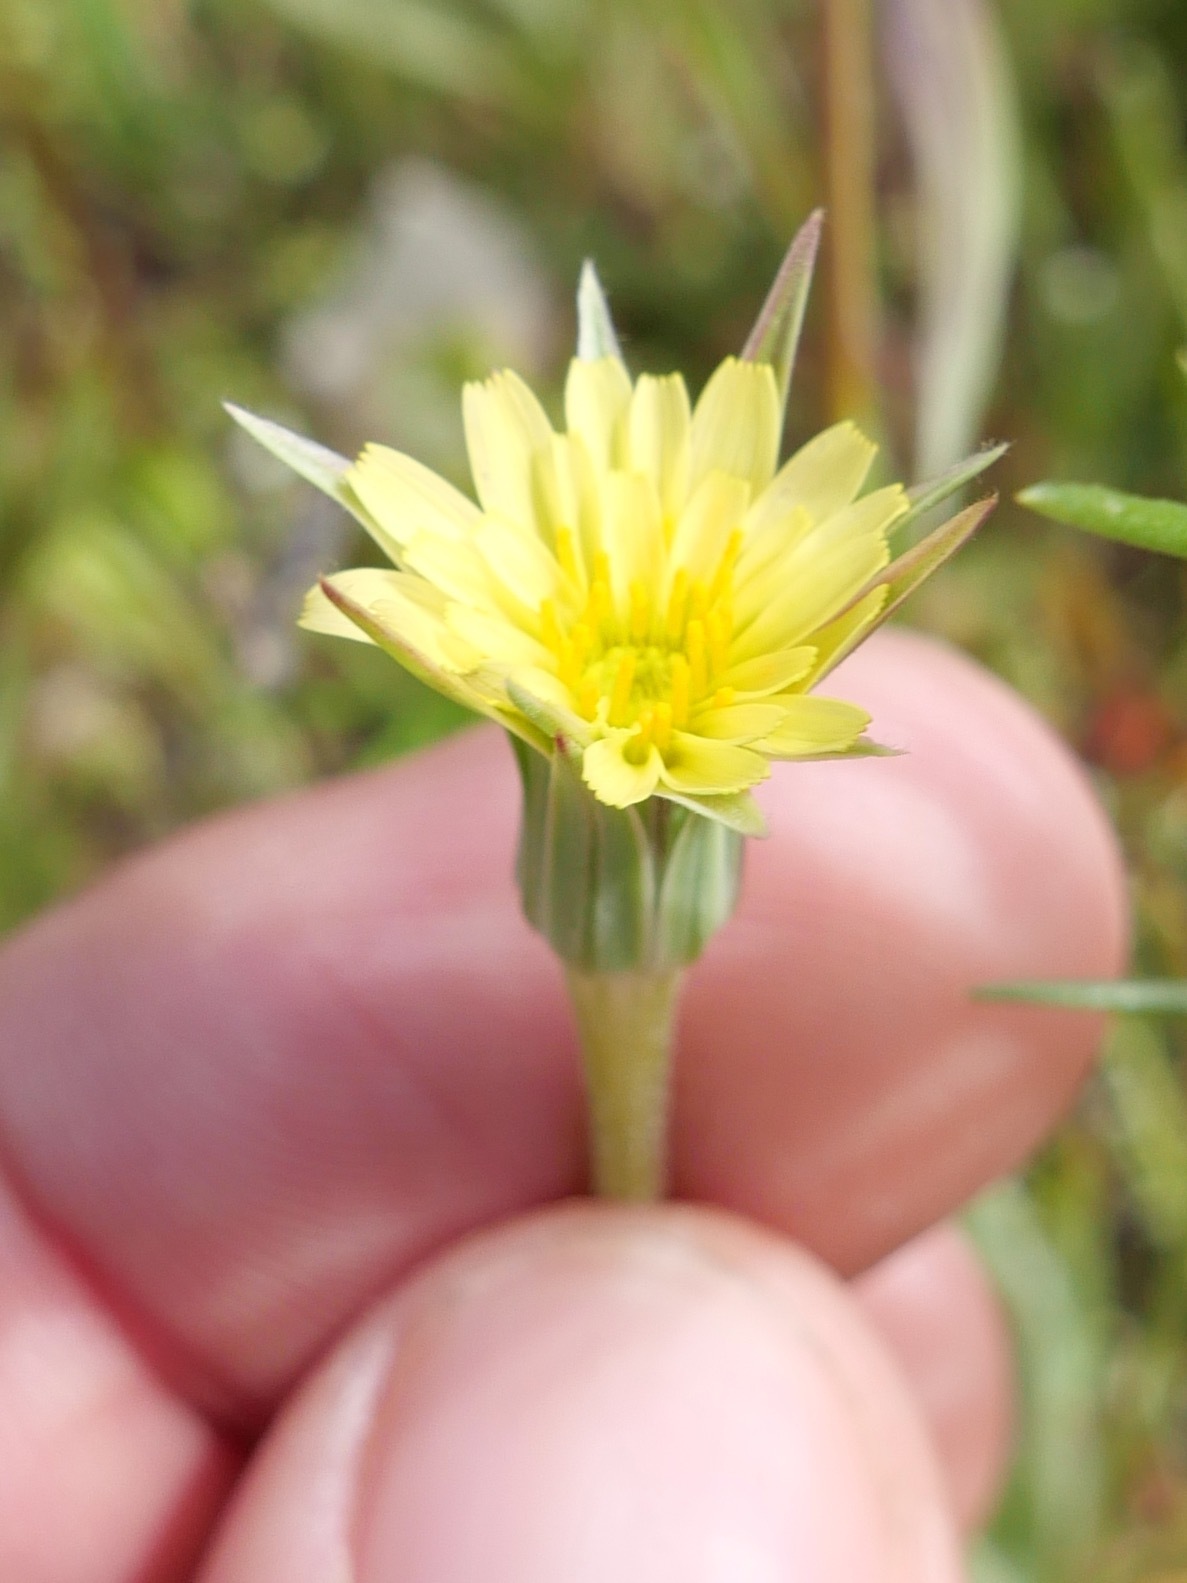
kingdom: Plantae
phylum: Tracheophyta
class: Magnoliopsida
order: Asterales
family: Asteraceae
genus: Microseris
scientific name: Microseris lindleyi
